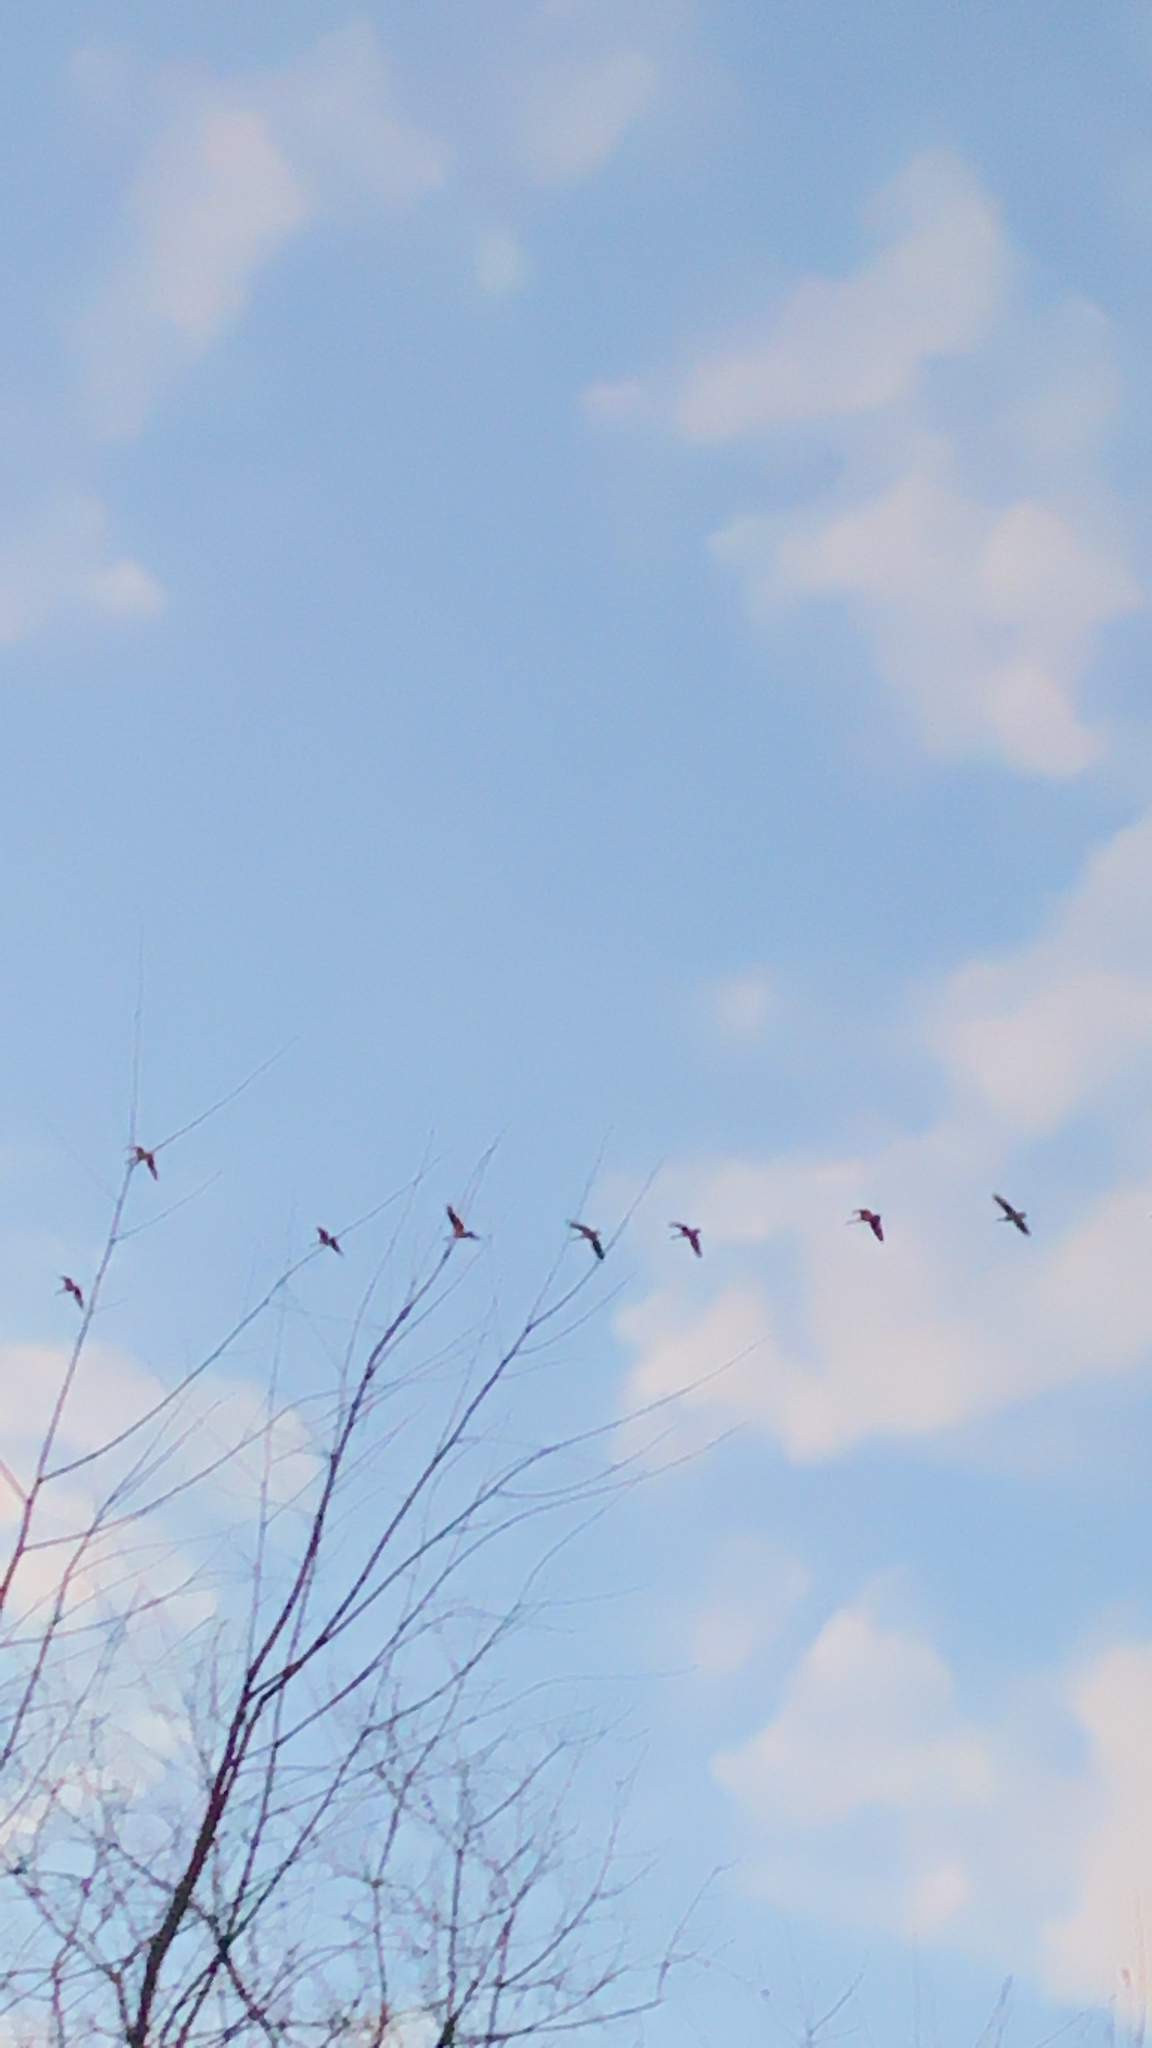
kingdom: Animalia
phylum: Chordata
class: Aves
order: Anseriformes
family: Anatidae
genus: Branta
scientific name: Branta canadensis
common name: Canada goose
